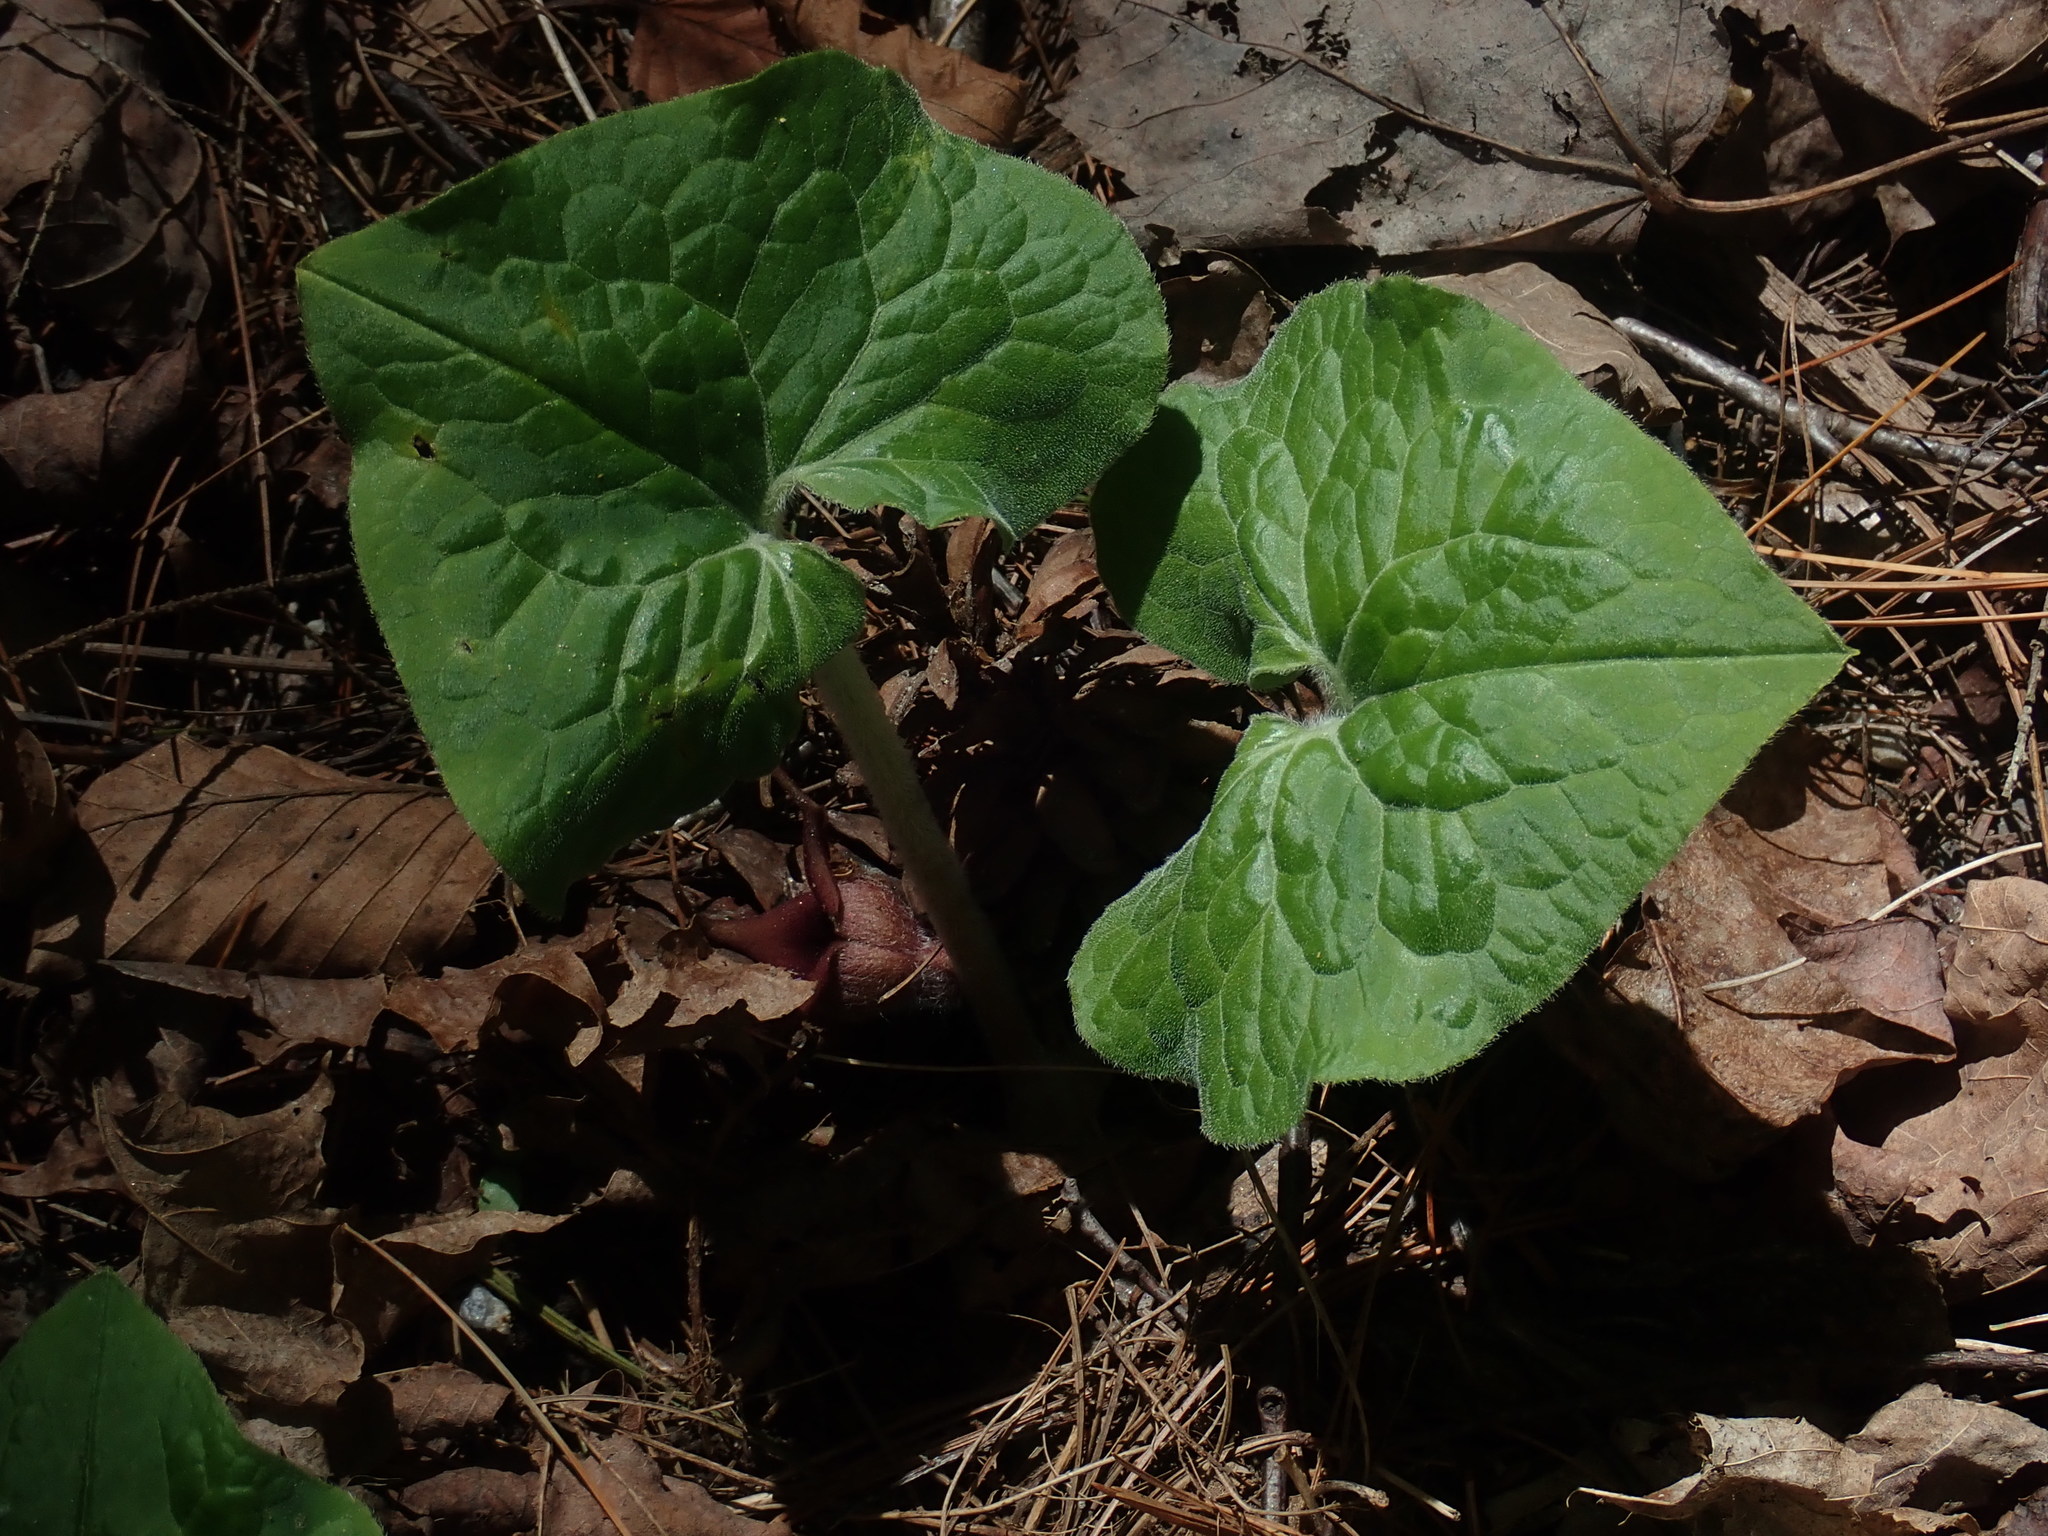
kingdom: Plantae
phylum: Tracheophyta
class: Magnoliopsida
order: Piperales
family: Aristolochiaceae
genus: Asarum
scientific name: Asarum canadense
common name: Wild ginger
